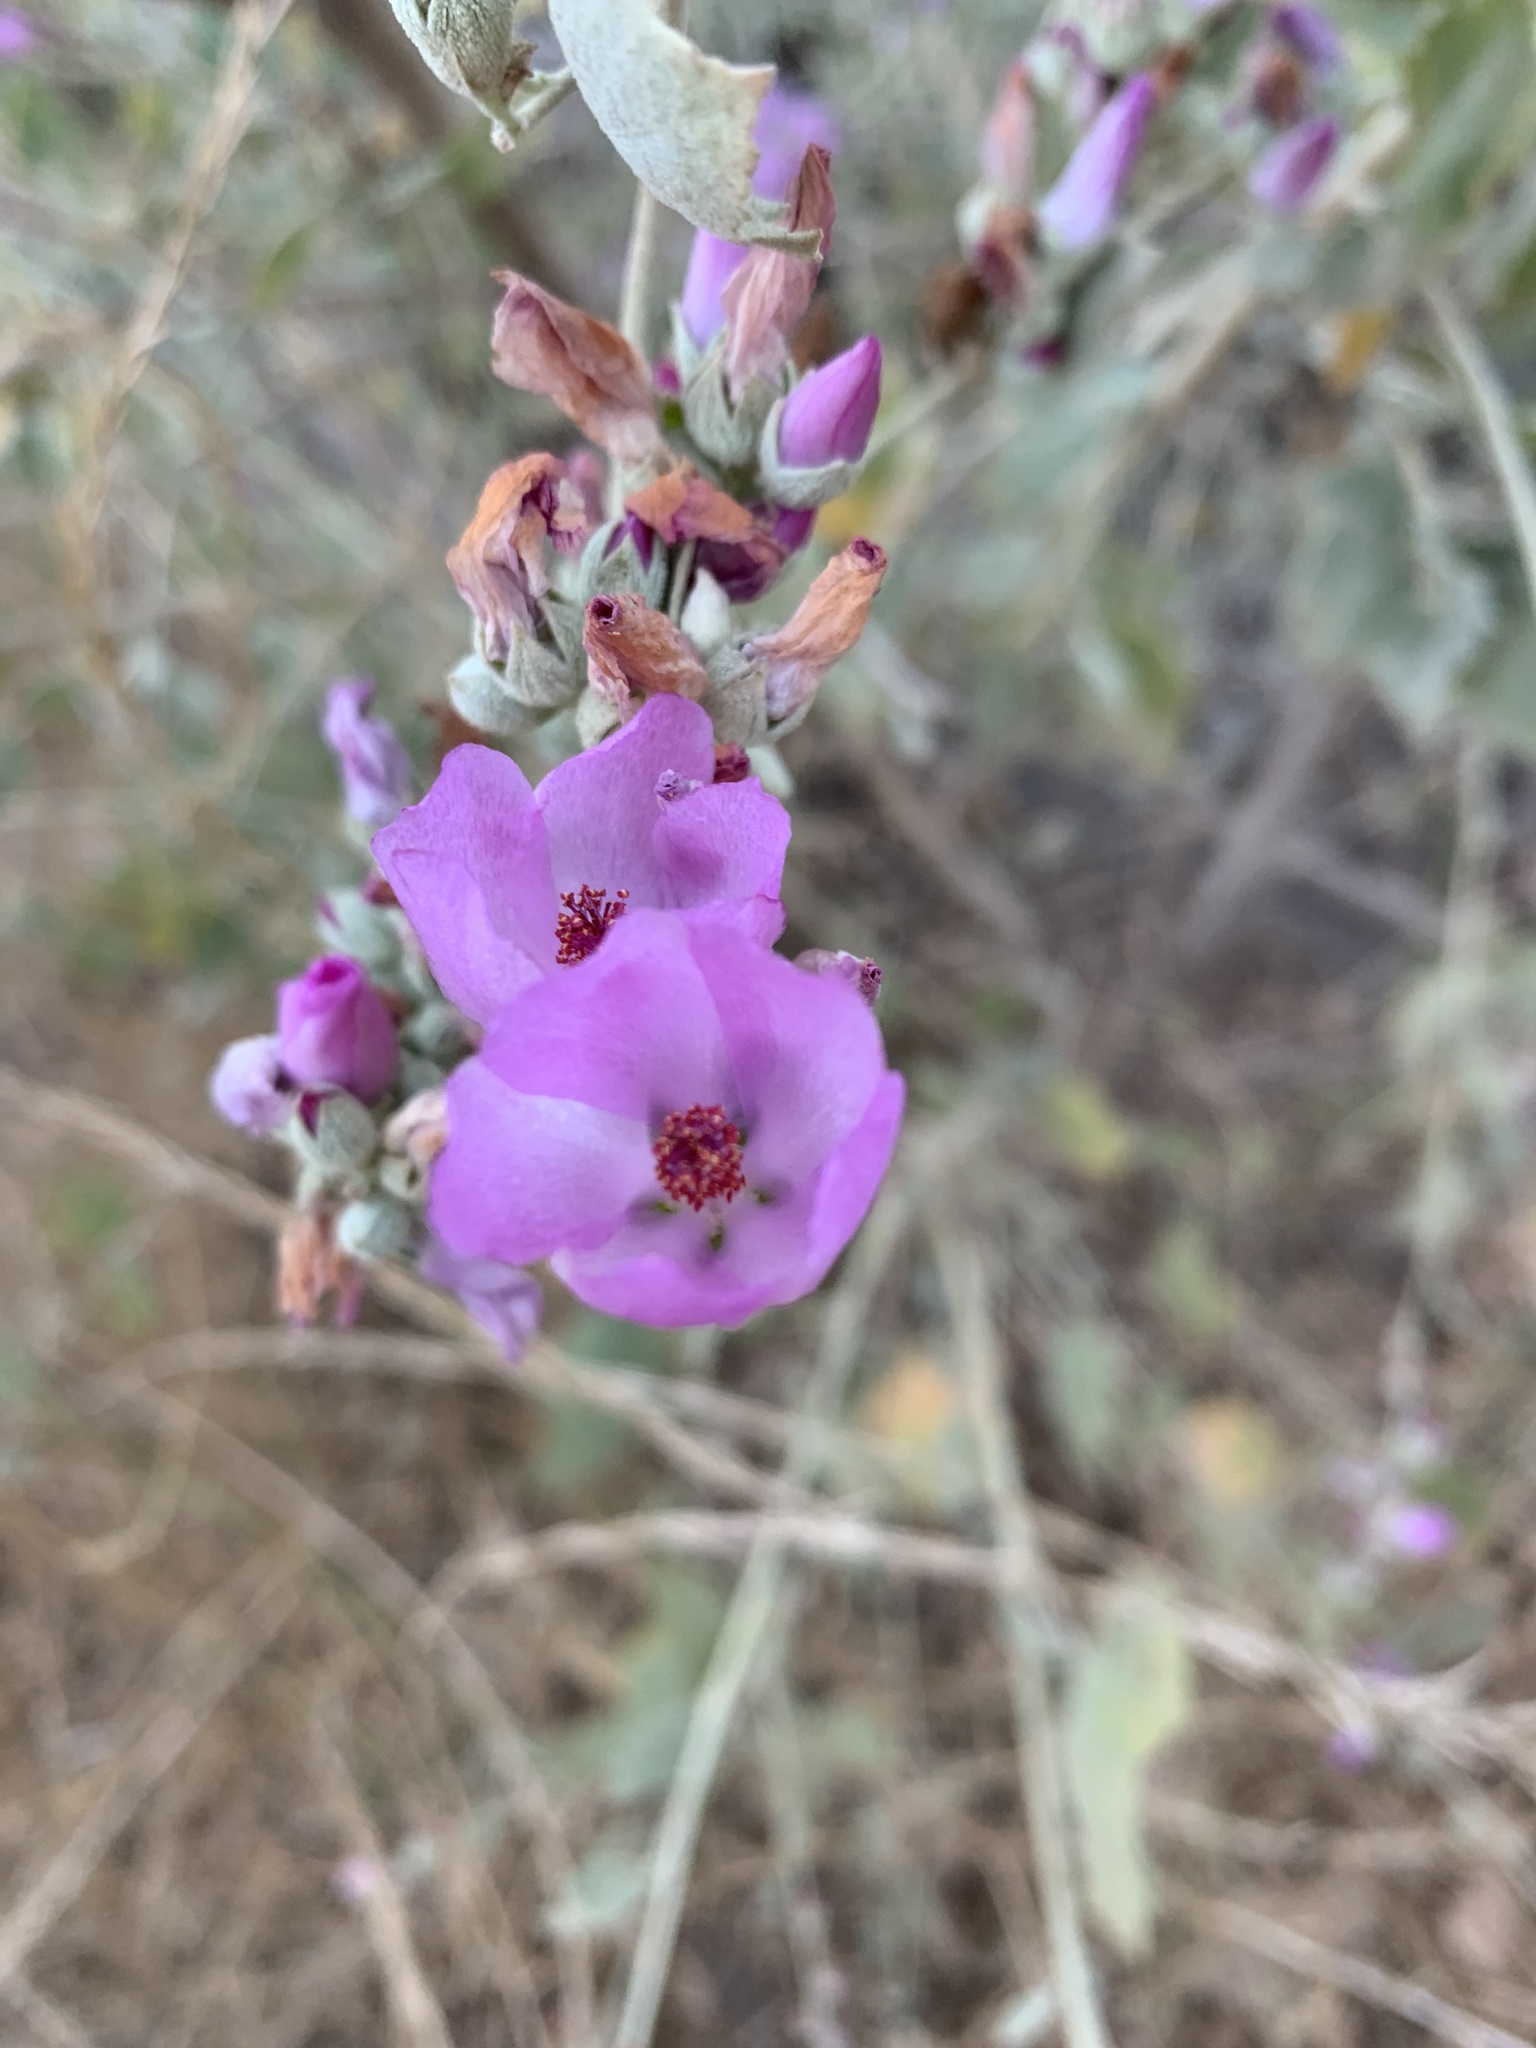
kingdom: Plantae
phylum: Tracheophyta
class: Magnoliopsida
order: Malvales
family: Malvaceae
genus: Malacothamnus
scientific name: Malacothamnus fasciculatus
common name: Sant cruz island bush-mallow
